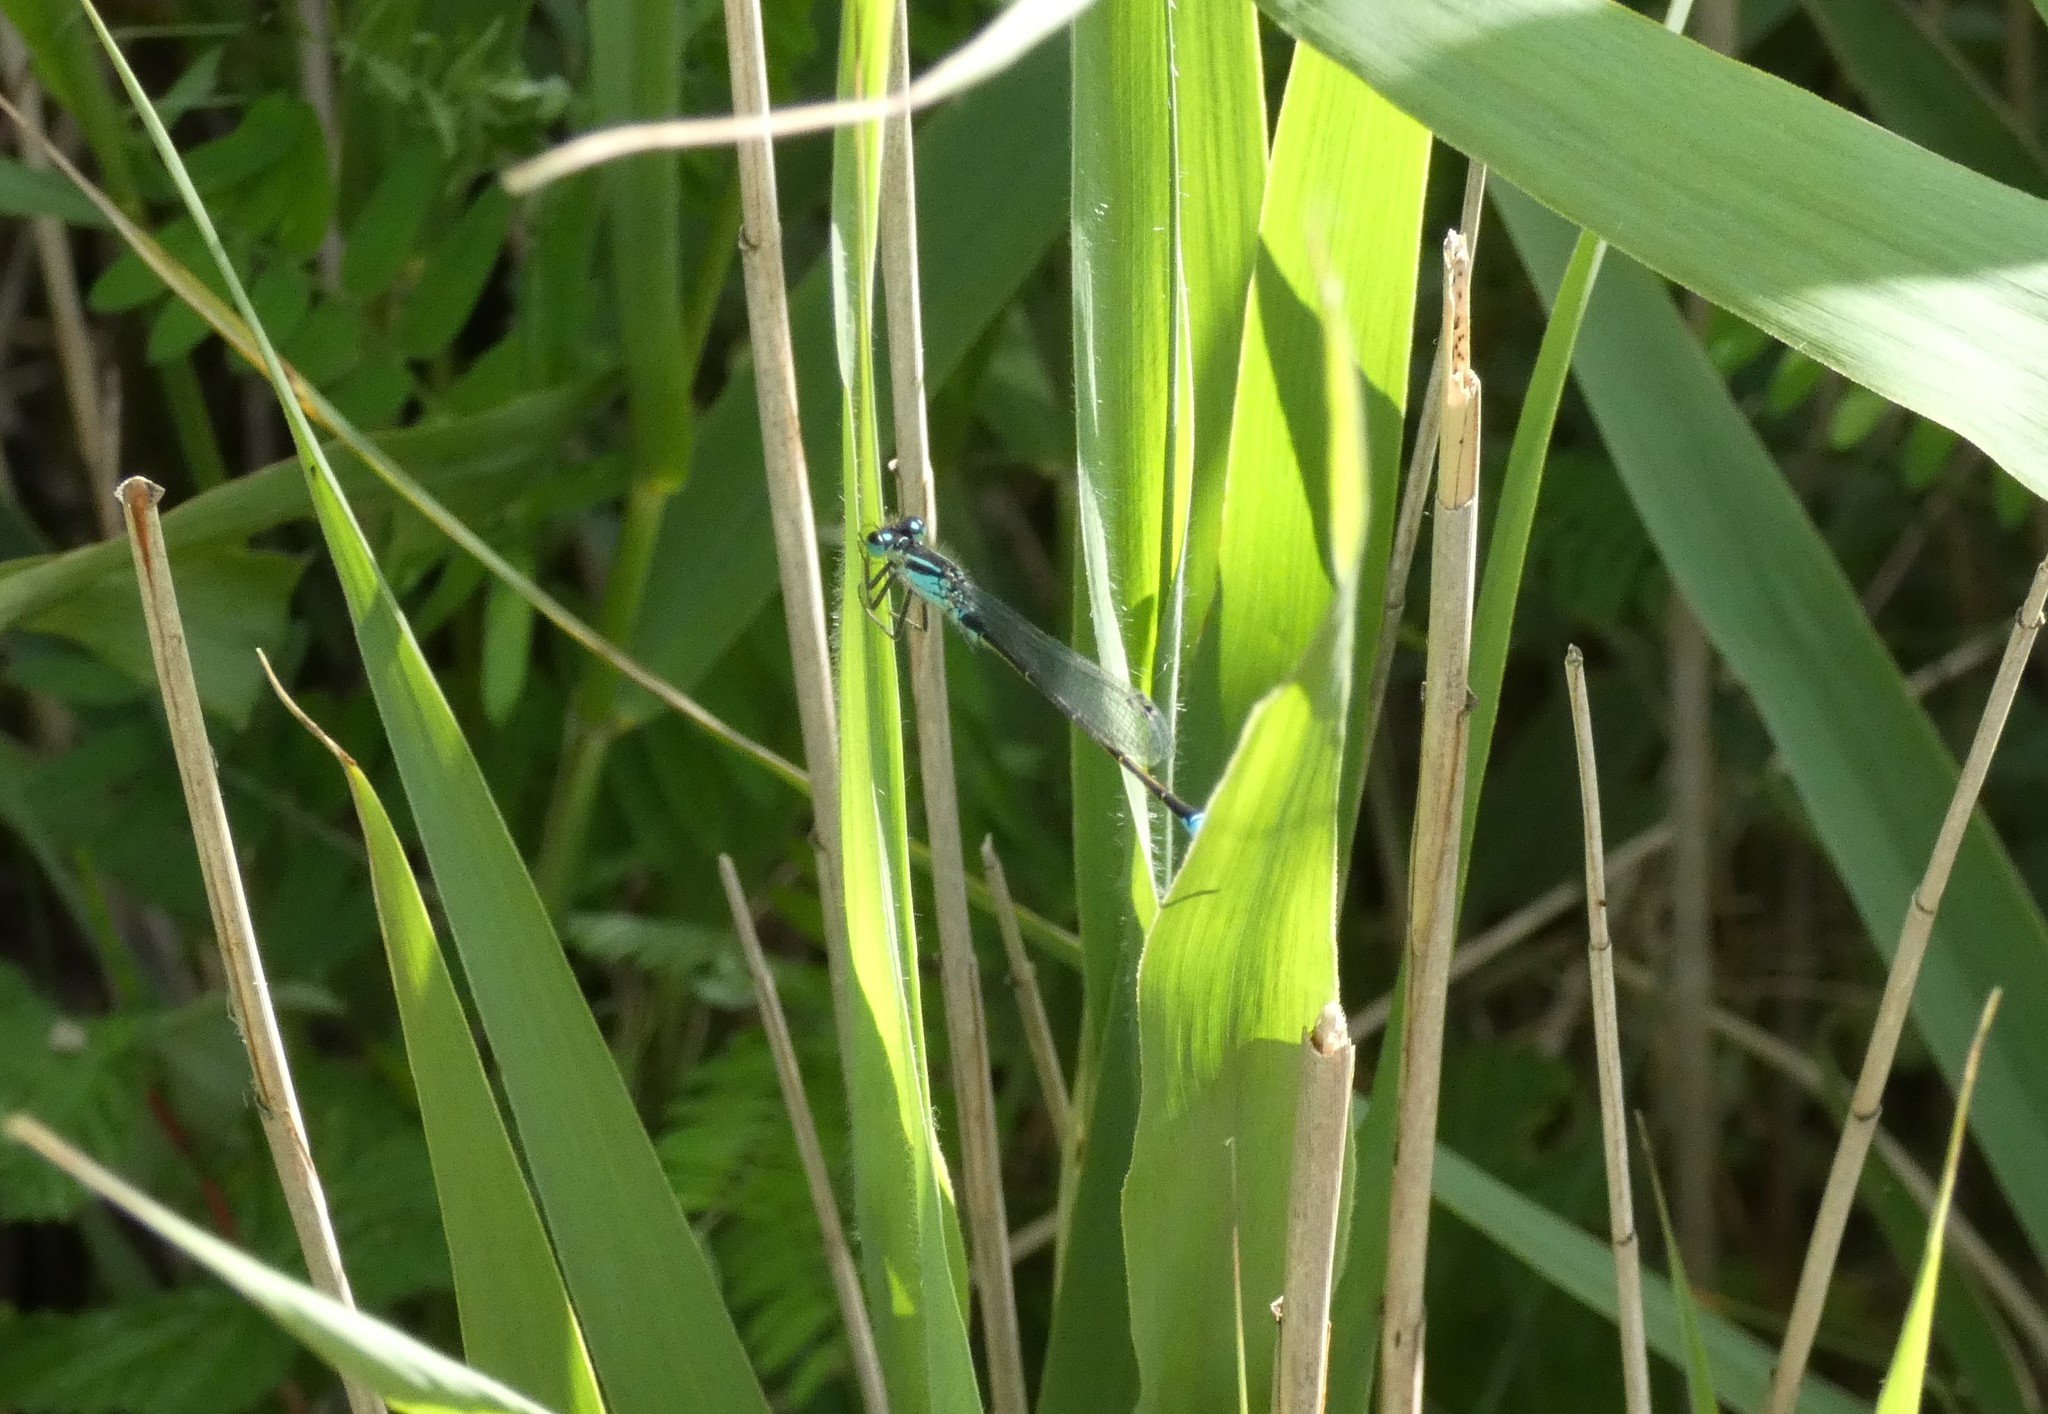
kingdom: Animalia
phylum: Arthropoda
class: Insecta
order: Odonata
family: Coenagrionidae
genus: Ischnura
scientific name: Ischnura elegans
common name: Blue-tailed damselfly
